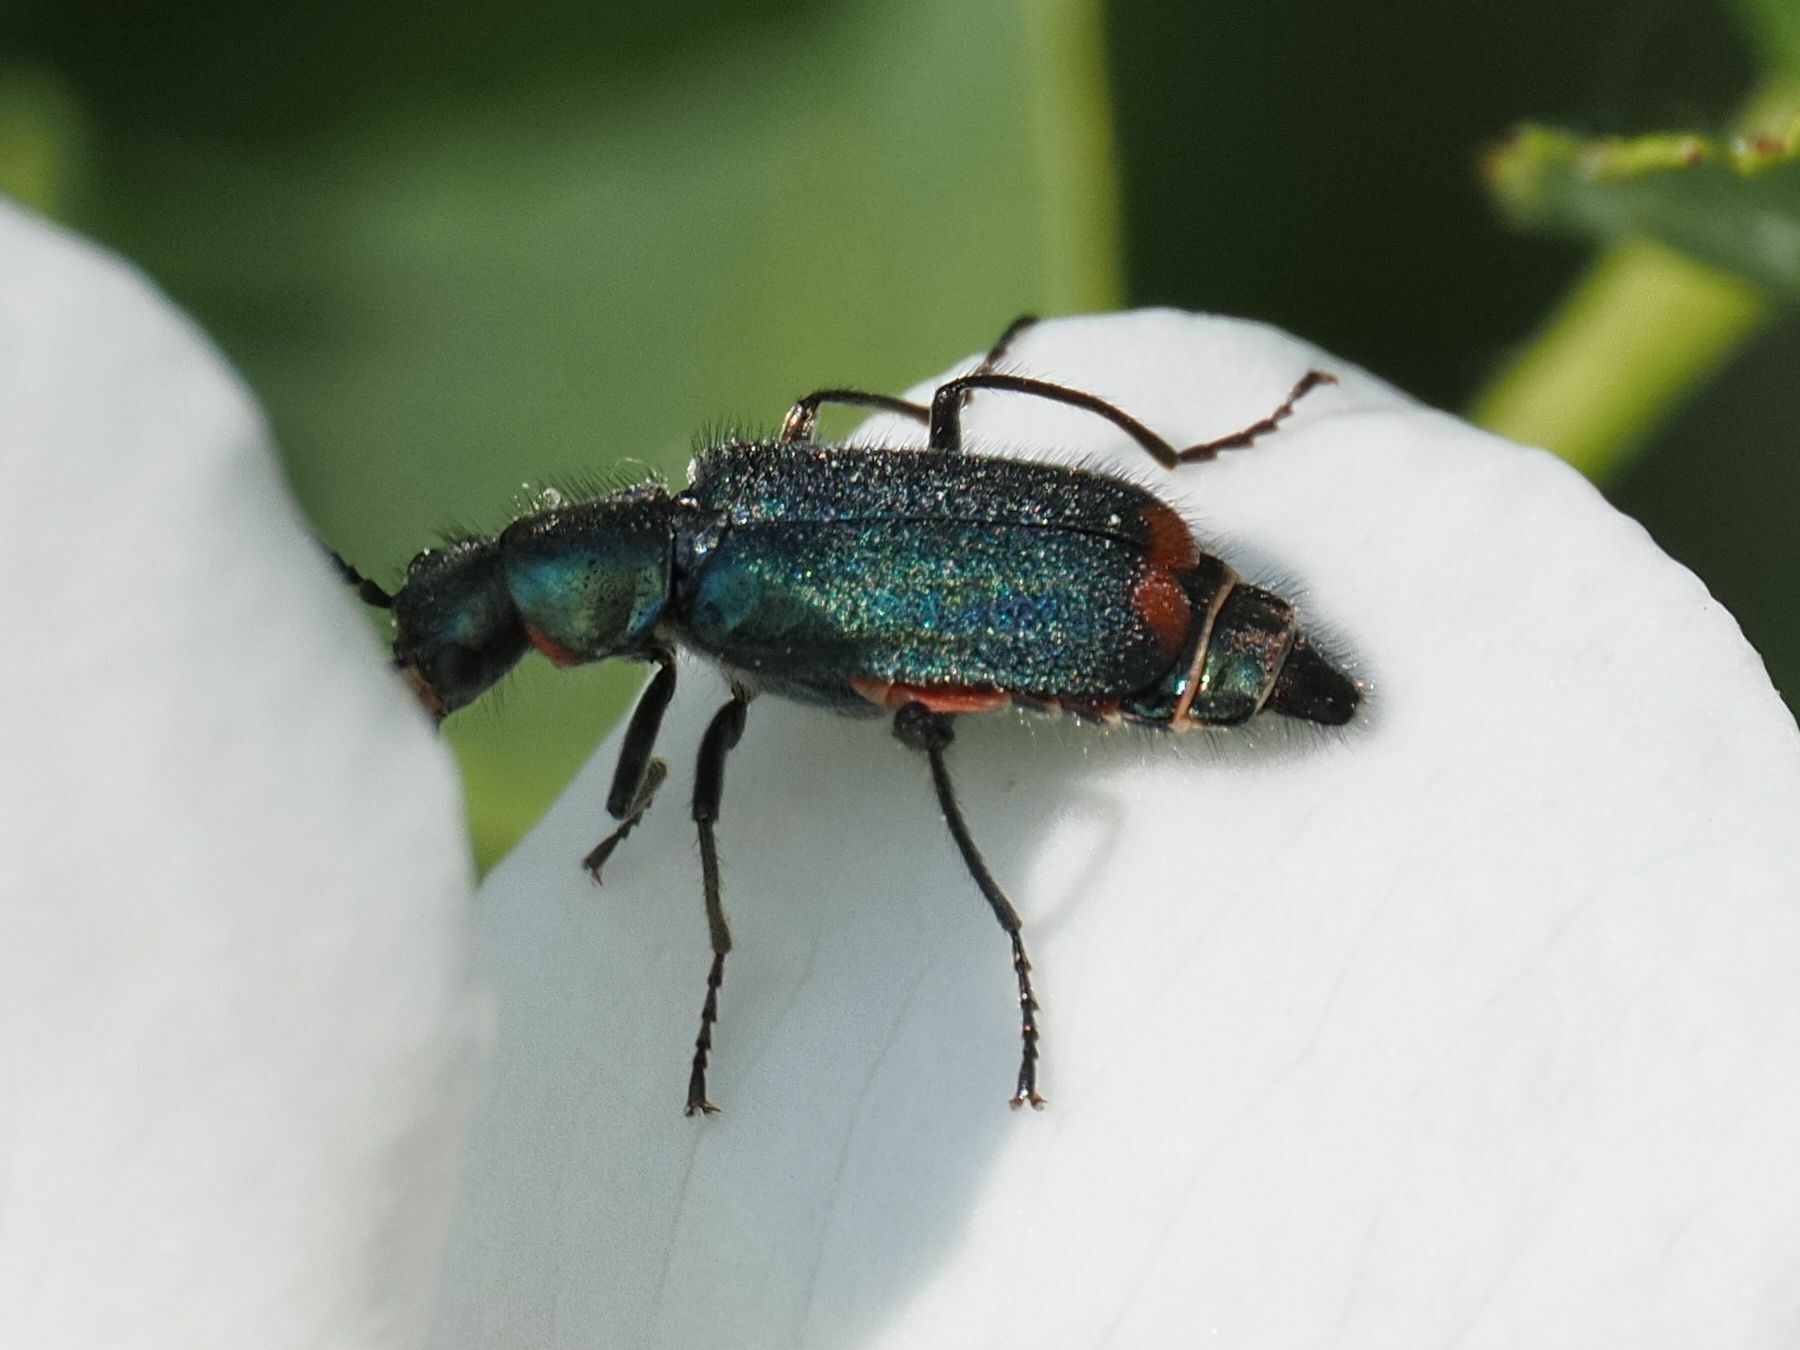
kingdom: Animalia
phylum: Arthropoda
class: Insecta
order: Coleoptera
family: Melyridae
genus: Malachius
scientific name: Malachius bipustulatus
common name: Malachite beetle
